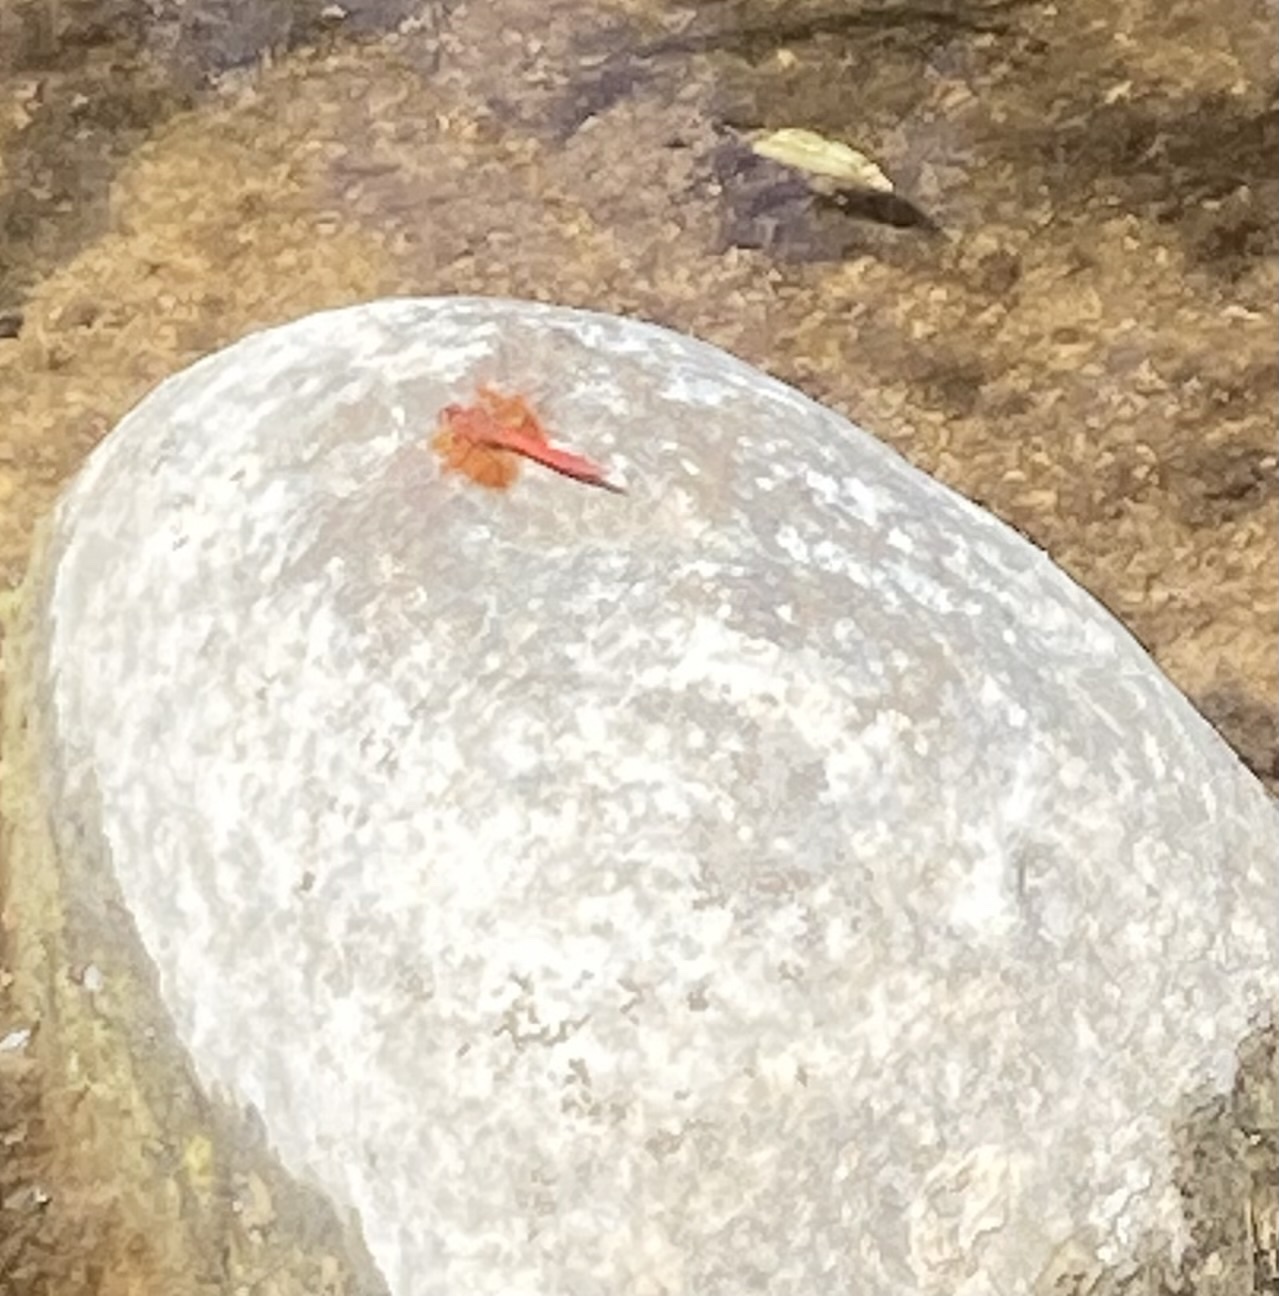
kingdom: Animalia
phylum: Arthropoda
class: Insecta
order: Odonata
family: Libellulidae
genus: Trithemis
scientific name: Trithemis kirbyi
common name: Kirby's dropwing
